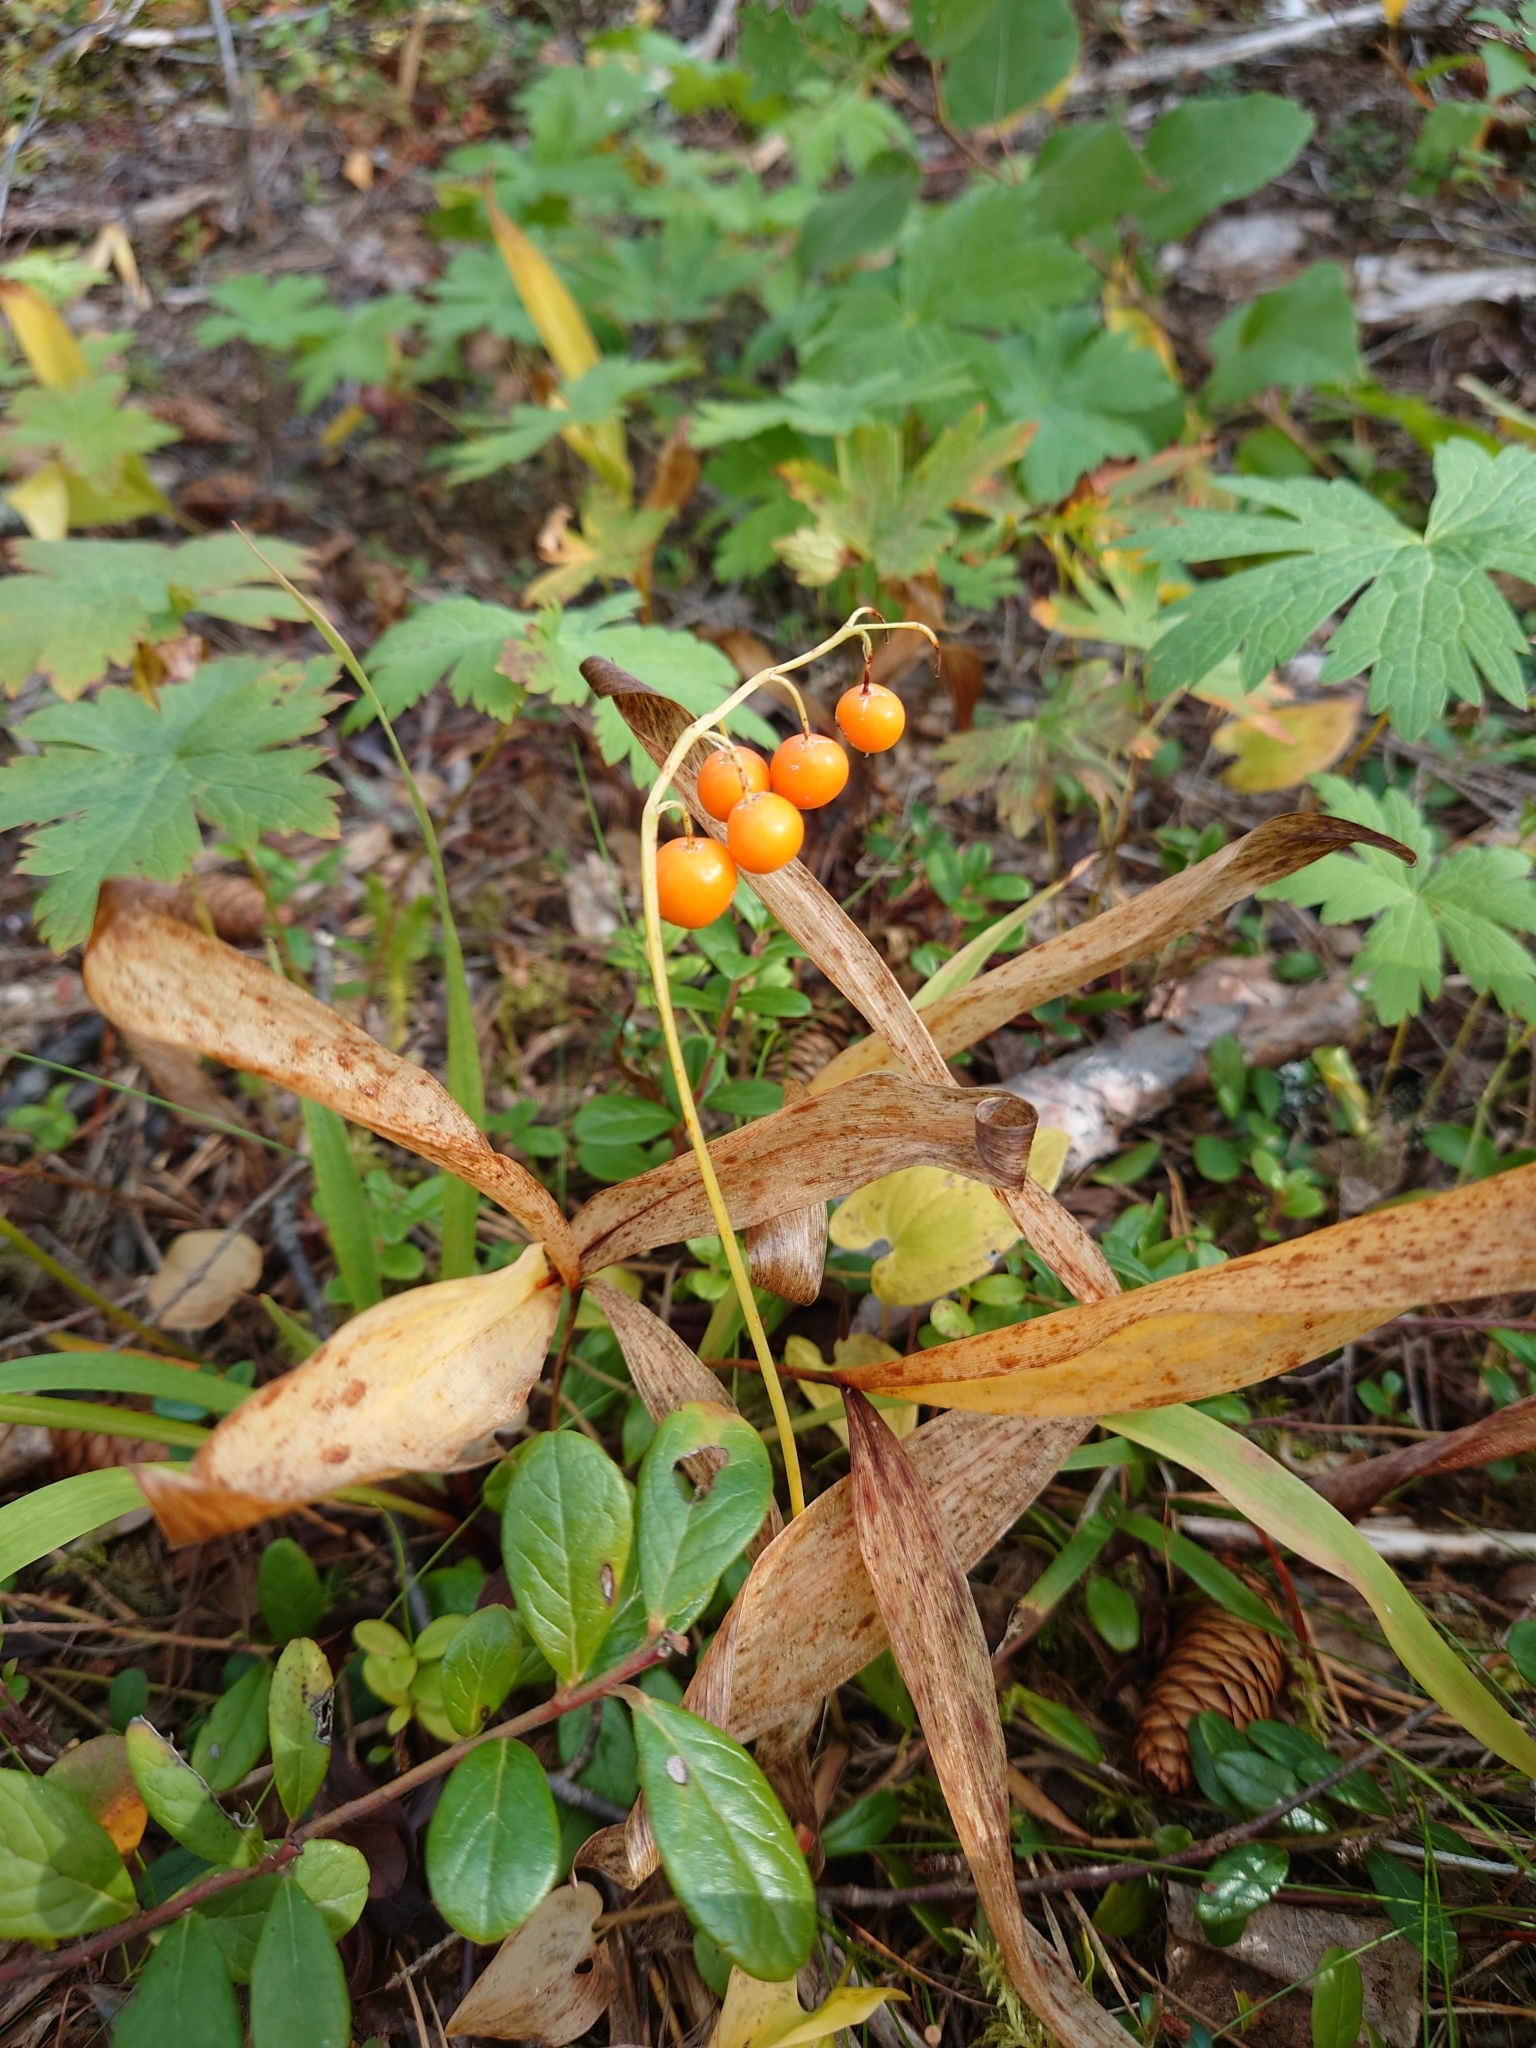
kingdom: Plantae
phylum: Tracheophyta
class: Liliopsida
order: Asparagales
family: Asparagaceae
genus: Convallaria
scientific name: Convallaria majalis
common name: Lily-of-the-valley
